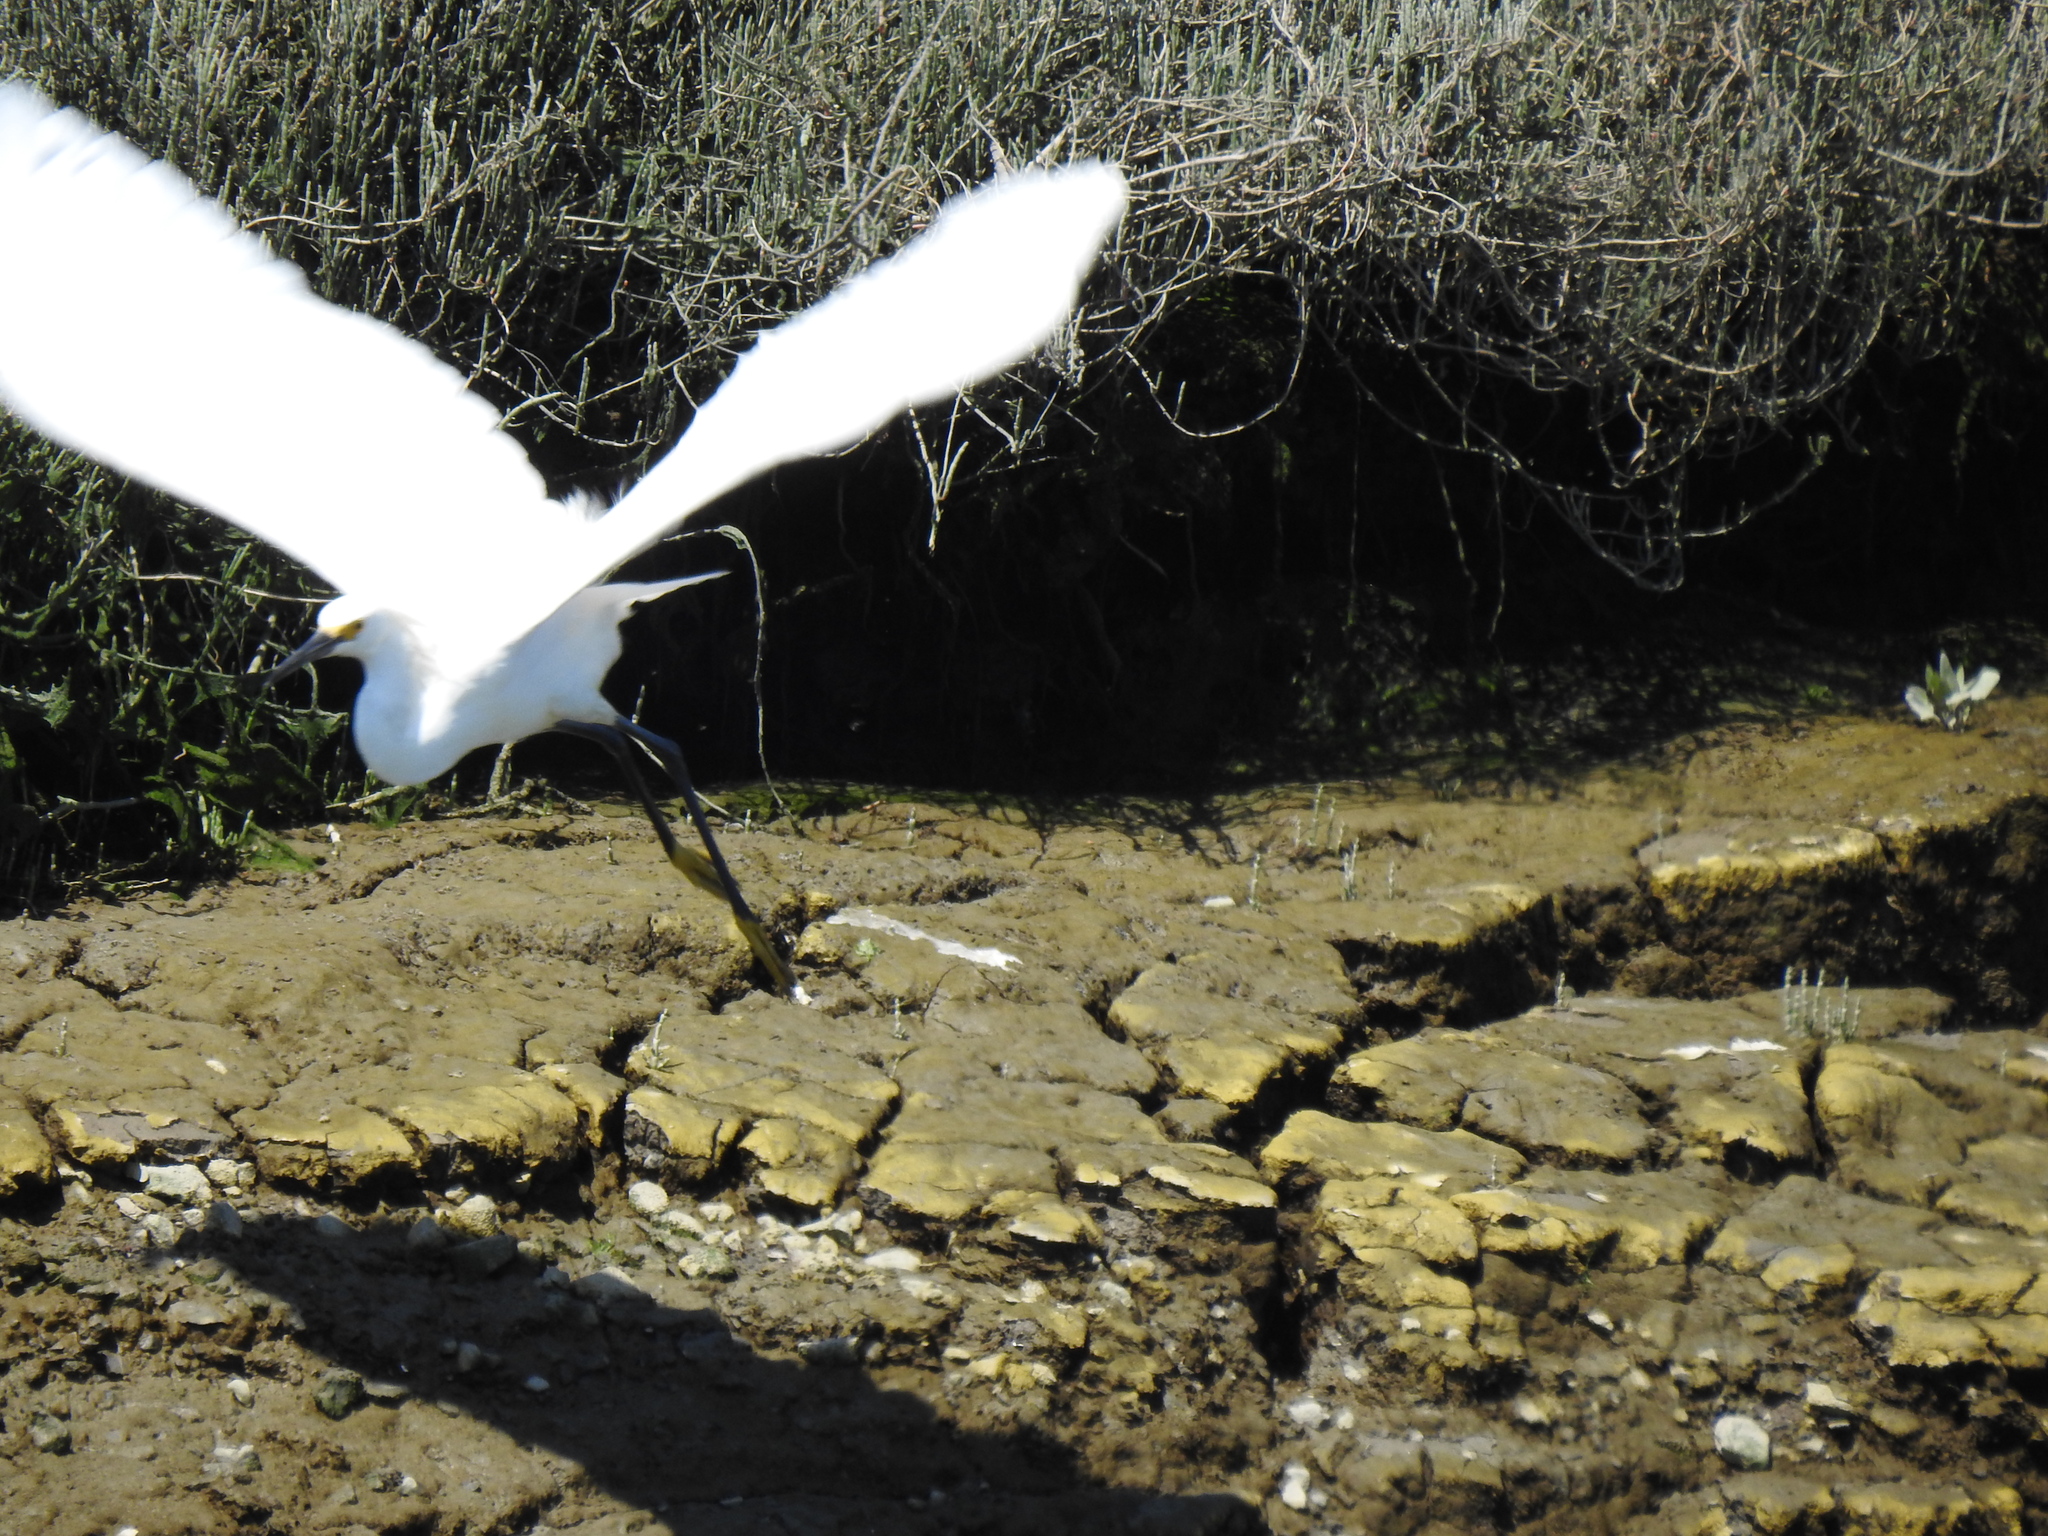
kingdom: Animalia
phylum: Chordata
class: Aves
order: Pelecaniformes
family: Ardeidae
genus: Egretta
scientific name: Egretta thula
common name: Snowy egret
